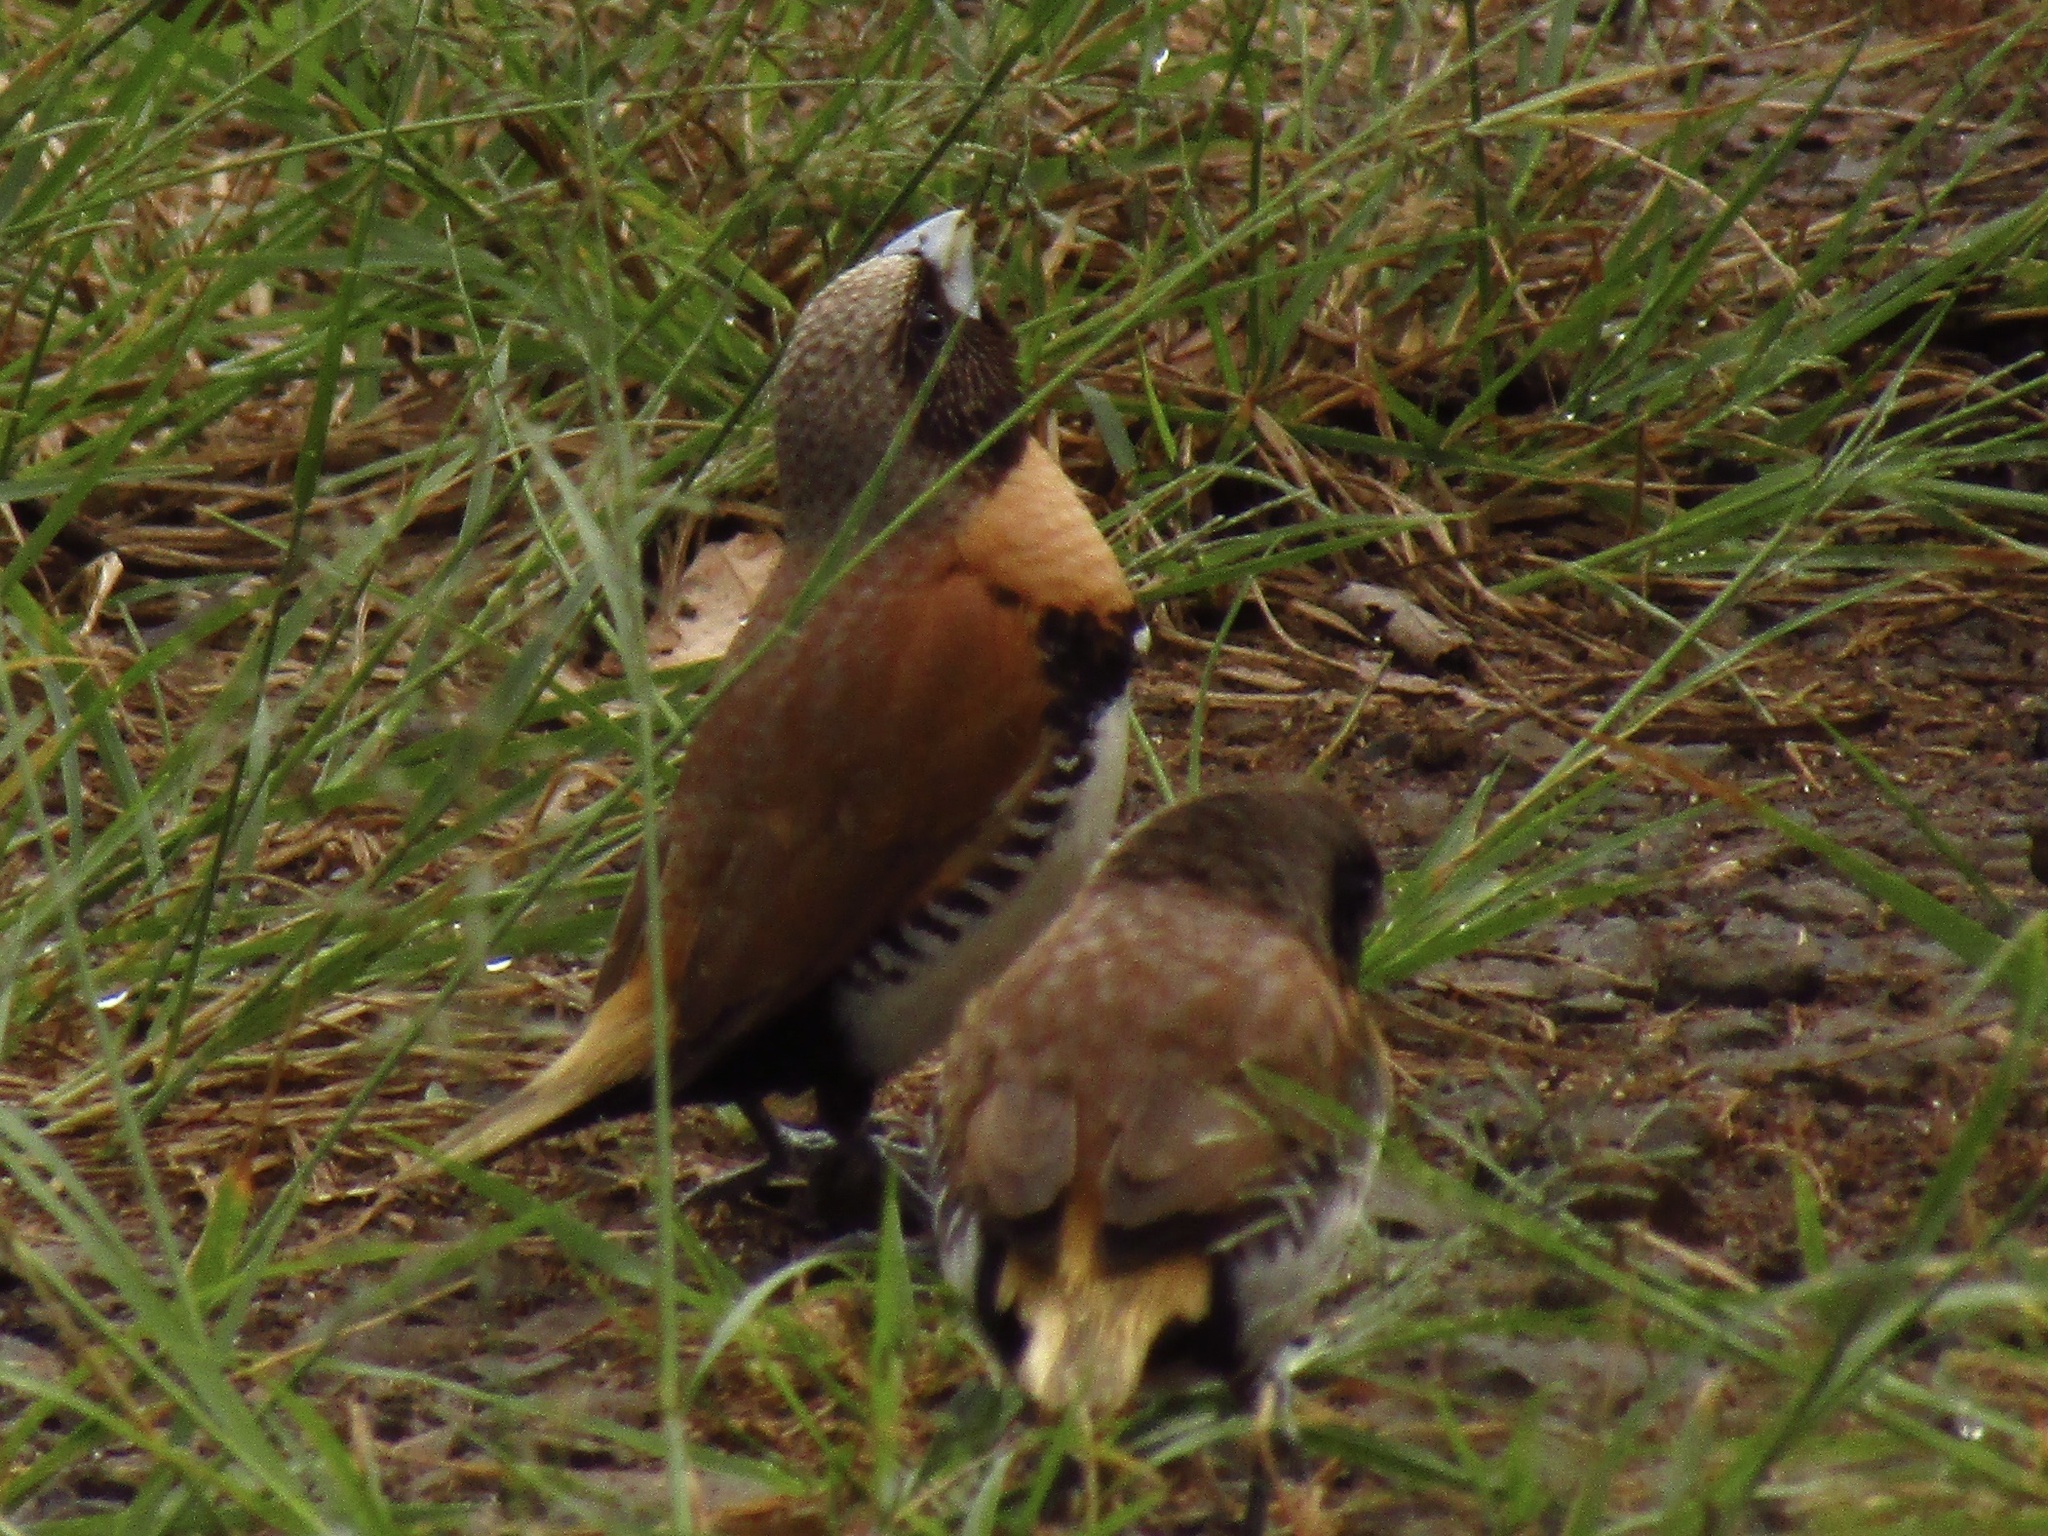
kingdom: Animalia
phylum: Chordata
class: Aves
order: Passeriformes
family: Estrildidae
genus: Lonchura
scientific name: Lonchura castaneothorax
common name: Chestnut-breasted mannikin
